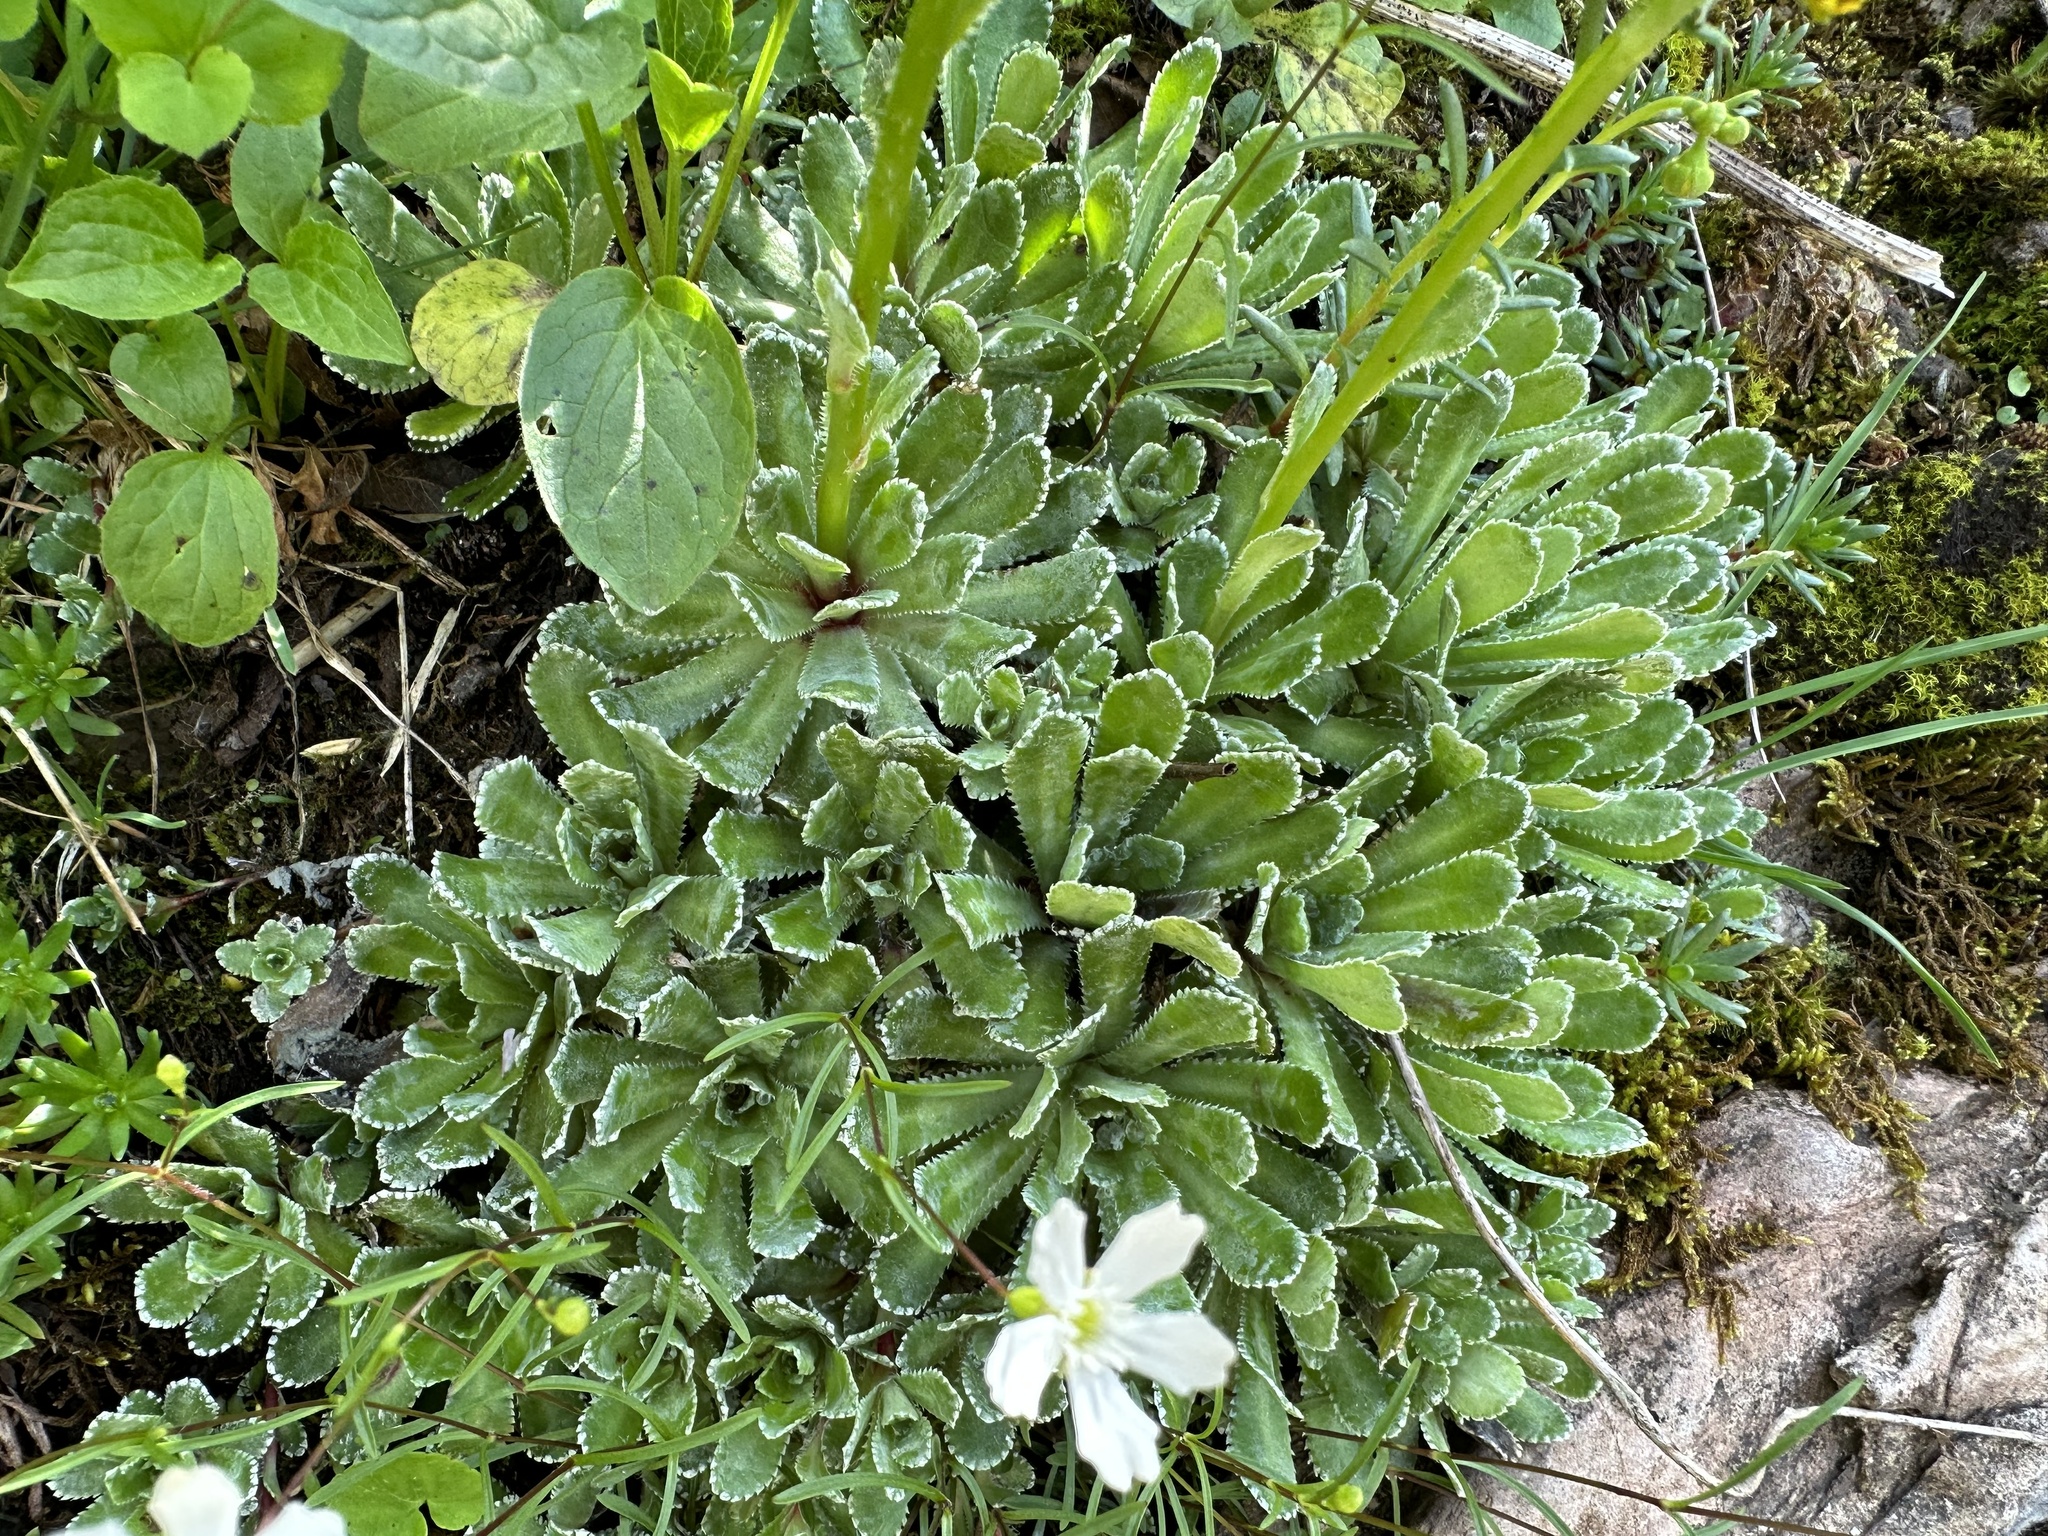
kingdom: Plantae
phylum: Tracheophyta
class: Magnoliopsida
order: Saxifragales
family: Saxifragaceae
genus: Saxifraga
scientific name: Saxifraga paniculata
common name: Livelong saxifrage
